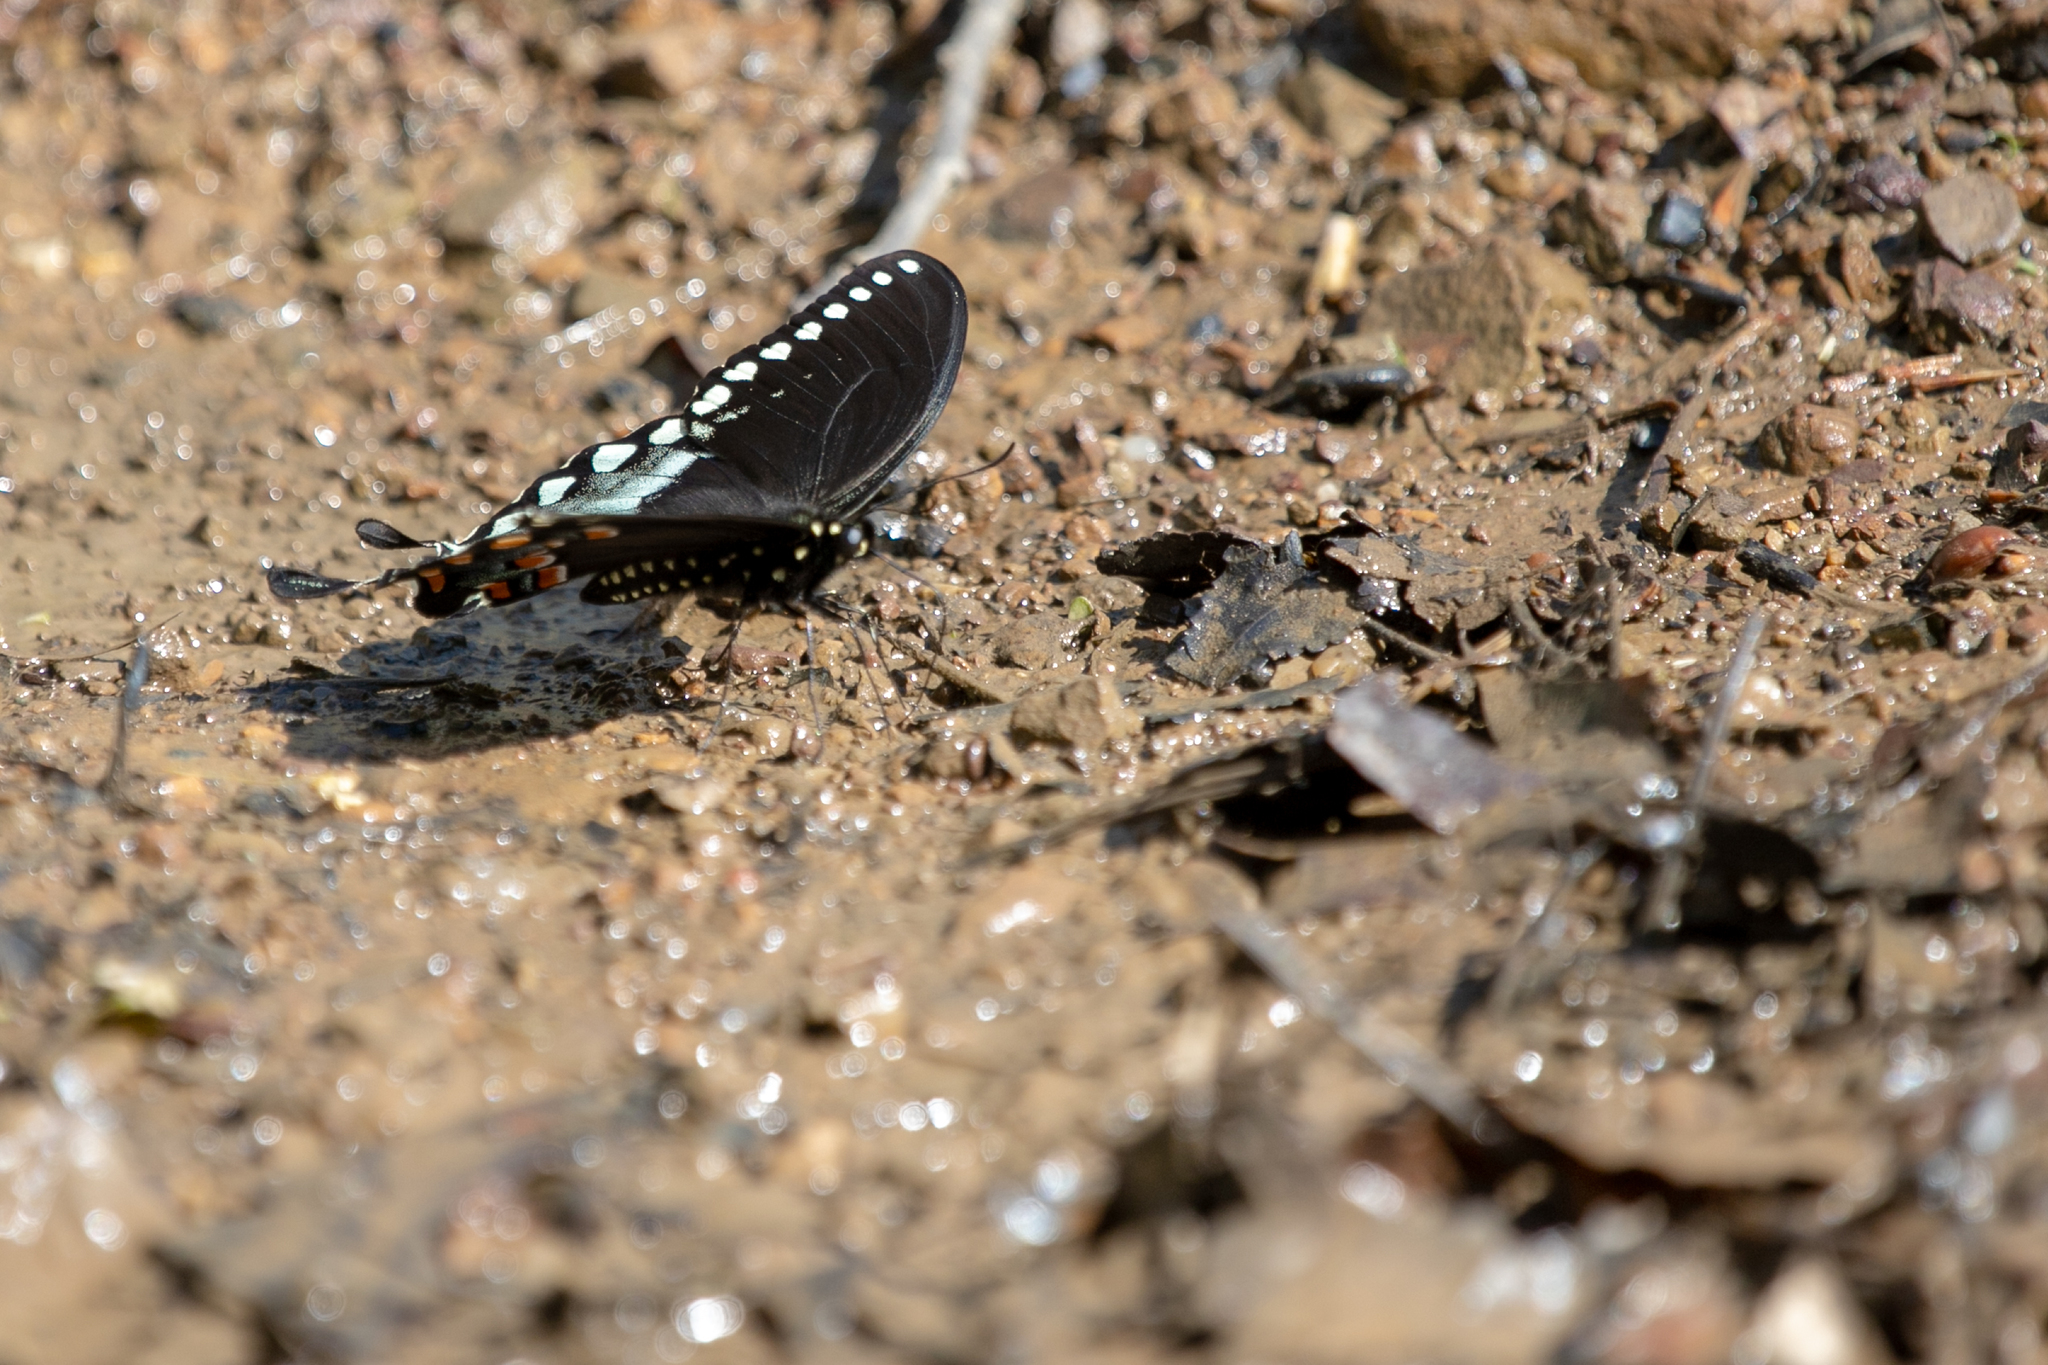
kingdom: Animalia
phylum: Arthropoda
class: Insecta
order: Lepidoptera
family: Papilionidae
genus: Papilio
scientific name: Papilio troilus
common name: Spicebush swallowtail
